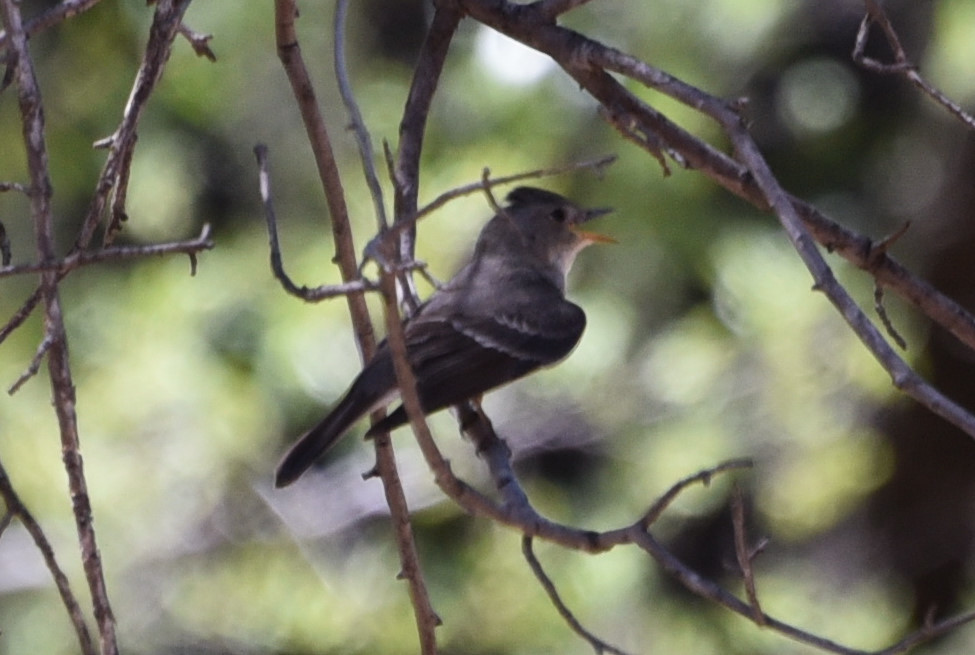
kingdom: Animalia
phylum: Chordata
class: Aves
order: Passeriformes
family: Tyrannidae
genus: Contopus
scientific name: Contopus sordidulus
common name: Western wood-pewee
